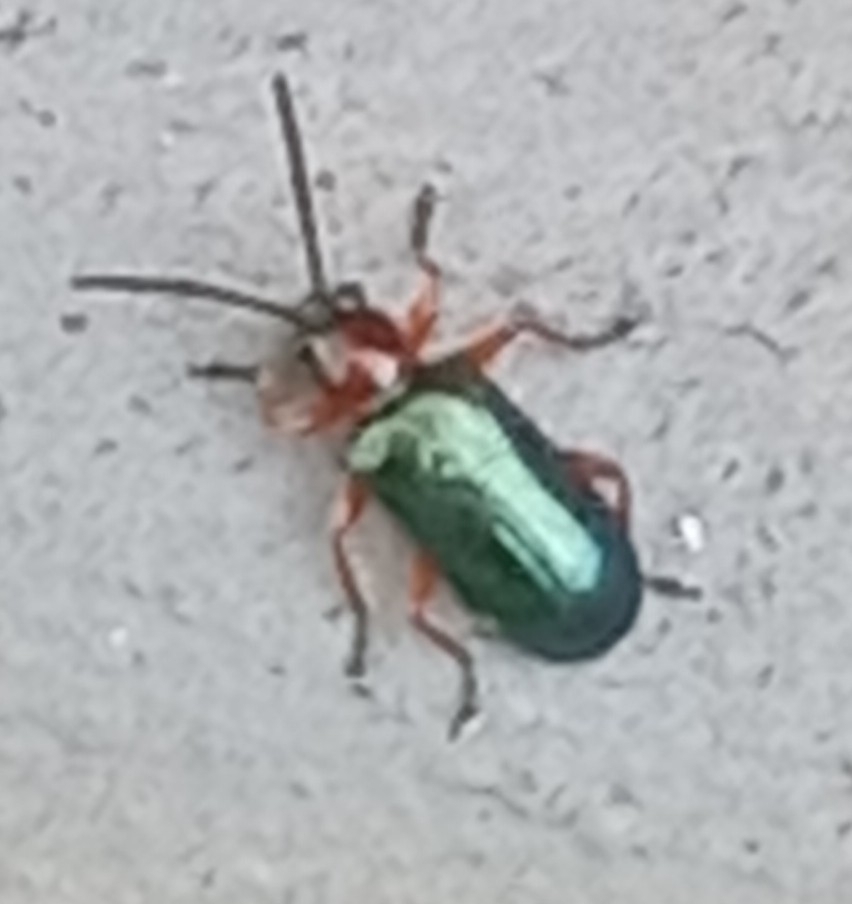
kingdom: Animalia
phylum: Arthropoda
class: Insecta
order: Coleoptera
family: Chrysomelidae
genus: Oulema
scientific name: Oulema
